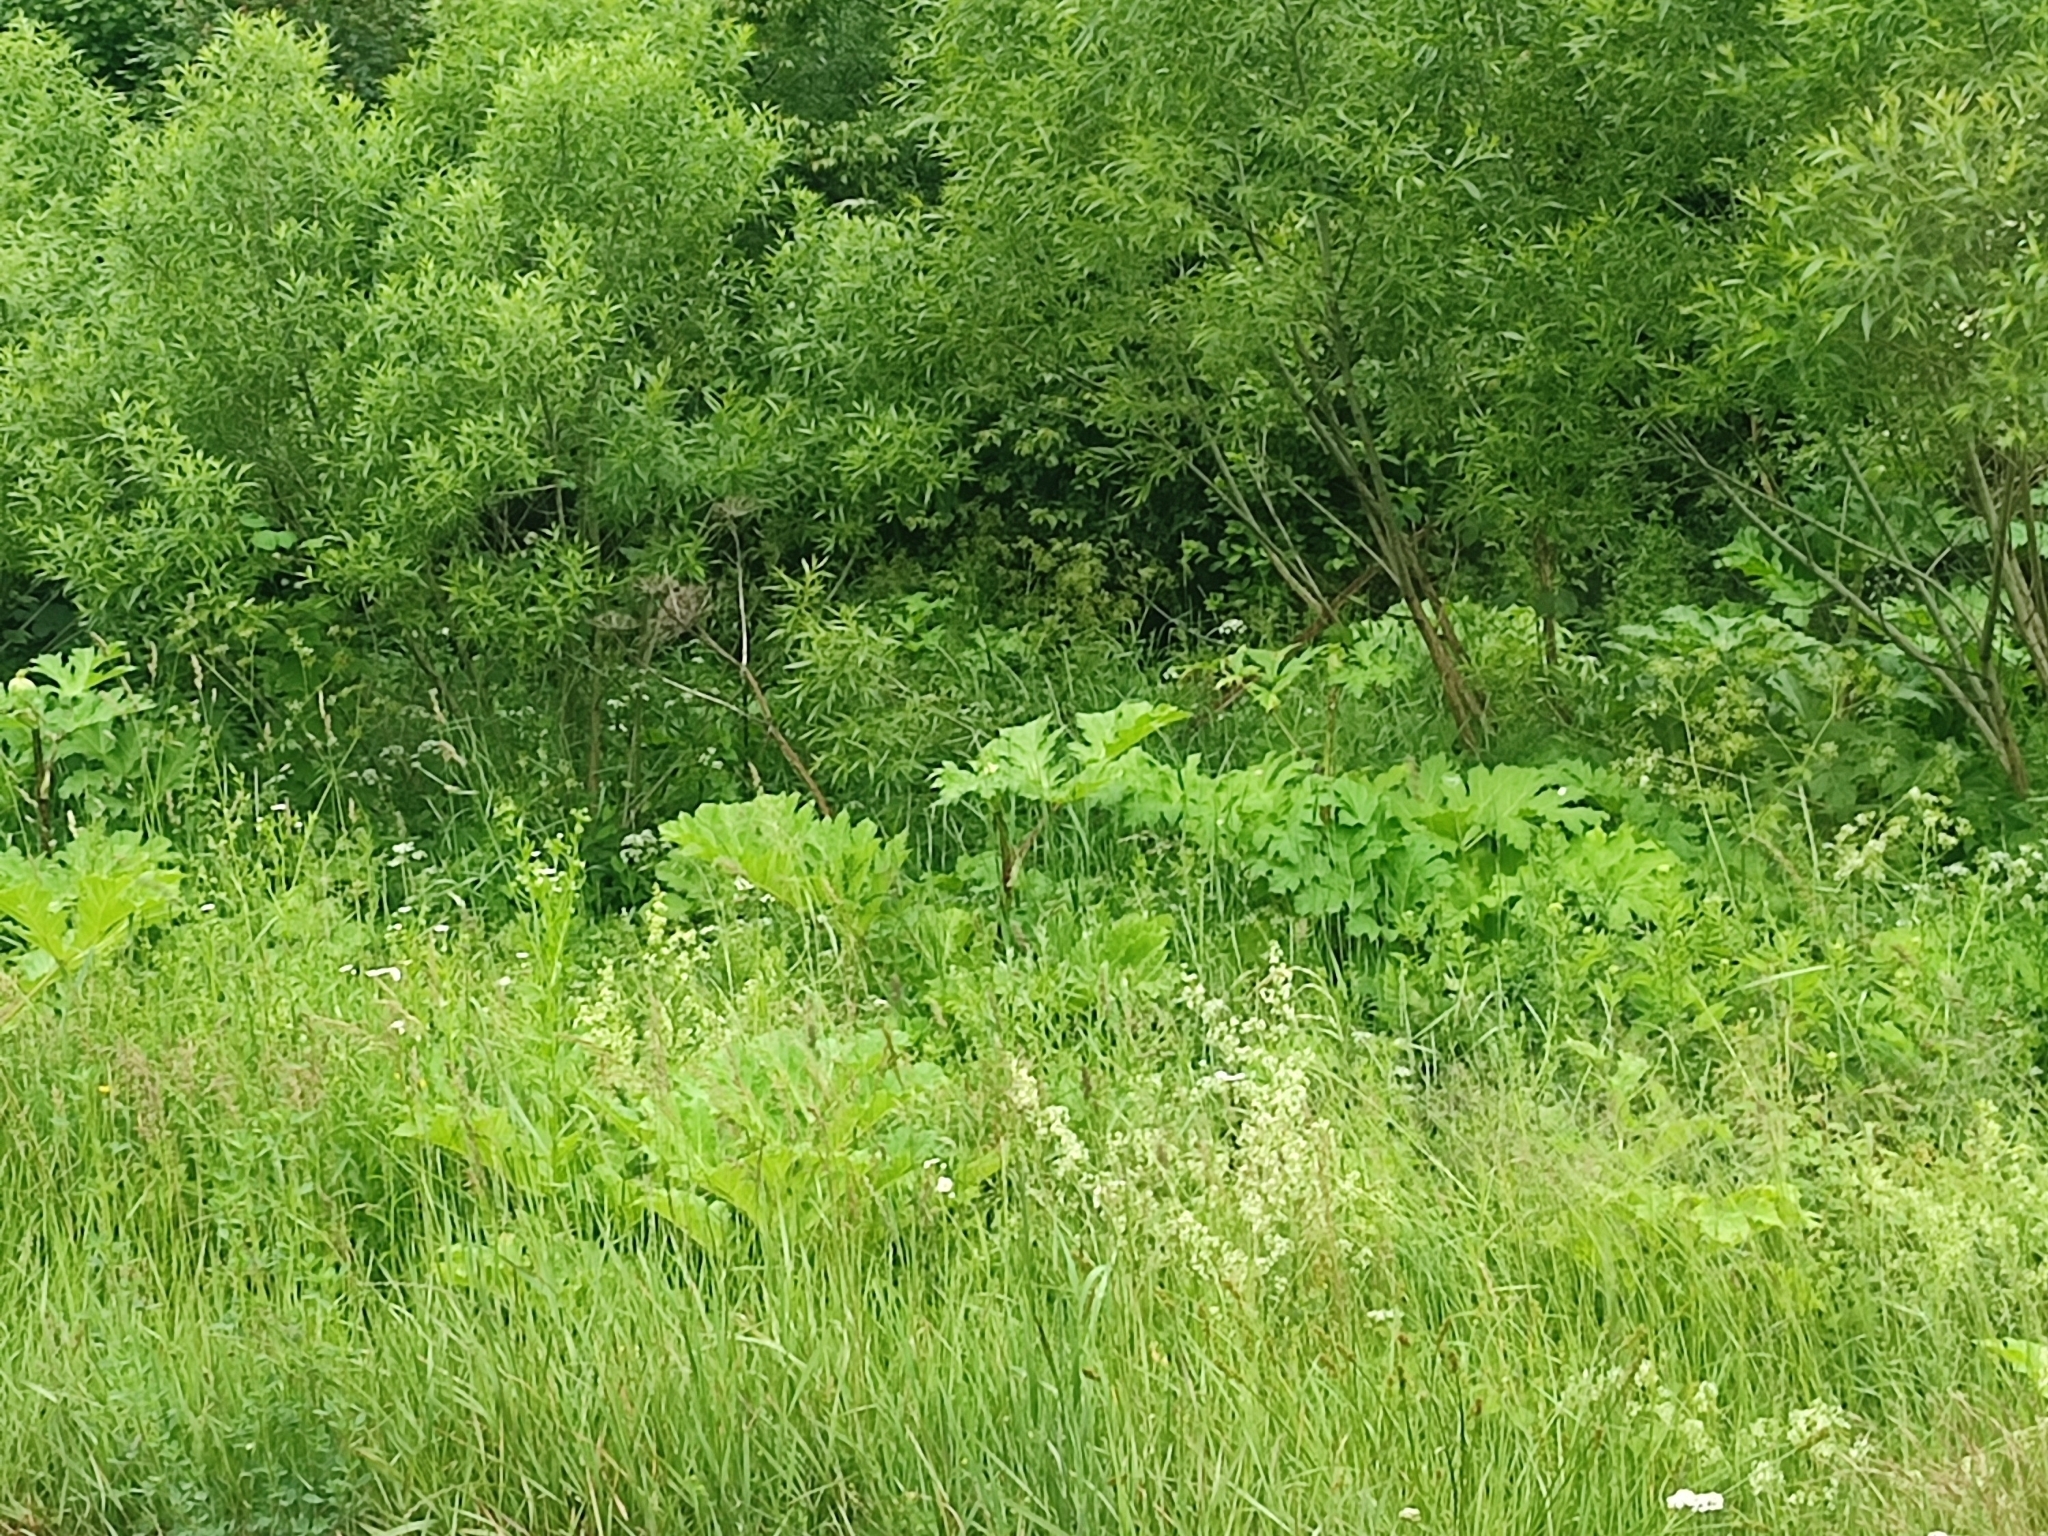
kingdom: Plantae
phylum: Tracheophyta
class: Magnoliopsida
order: Apiales
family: Apiaceae
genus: Heracleum
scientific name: Heracleum sosnowskyi
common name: Sosnowsky's hogweed
